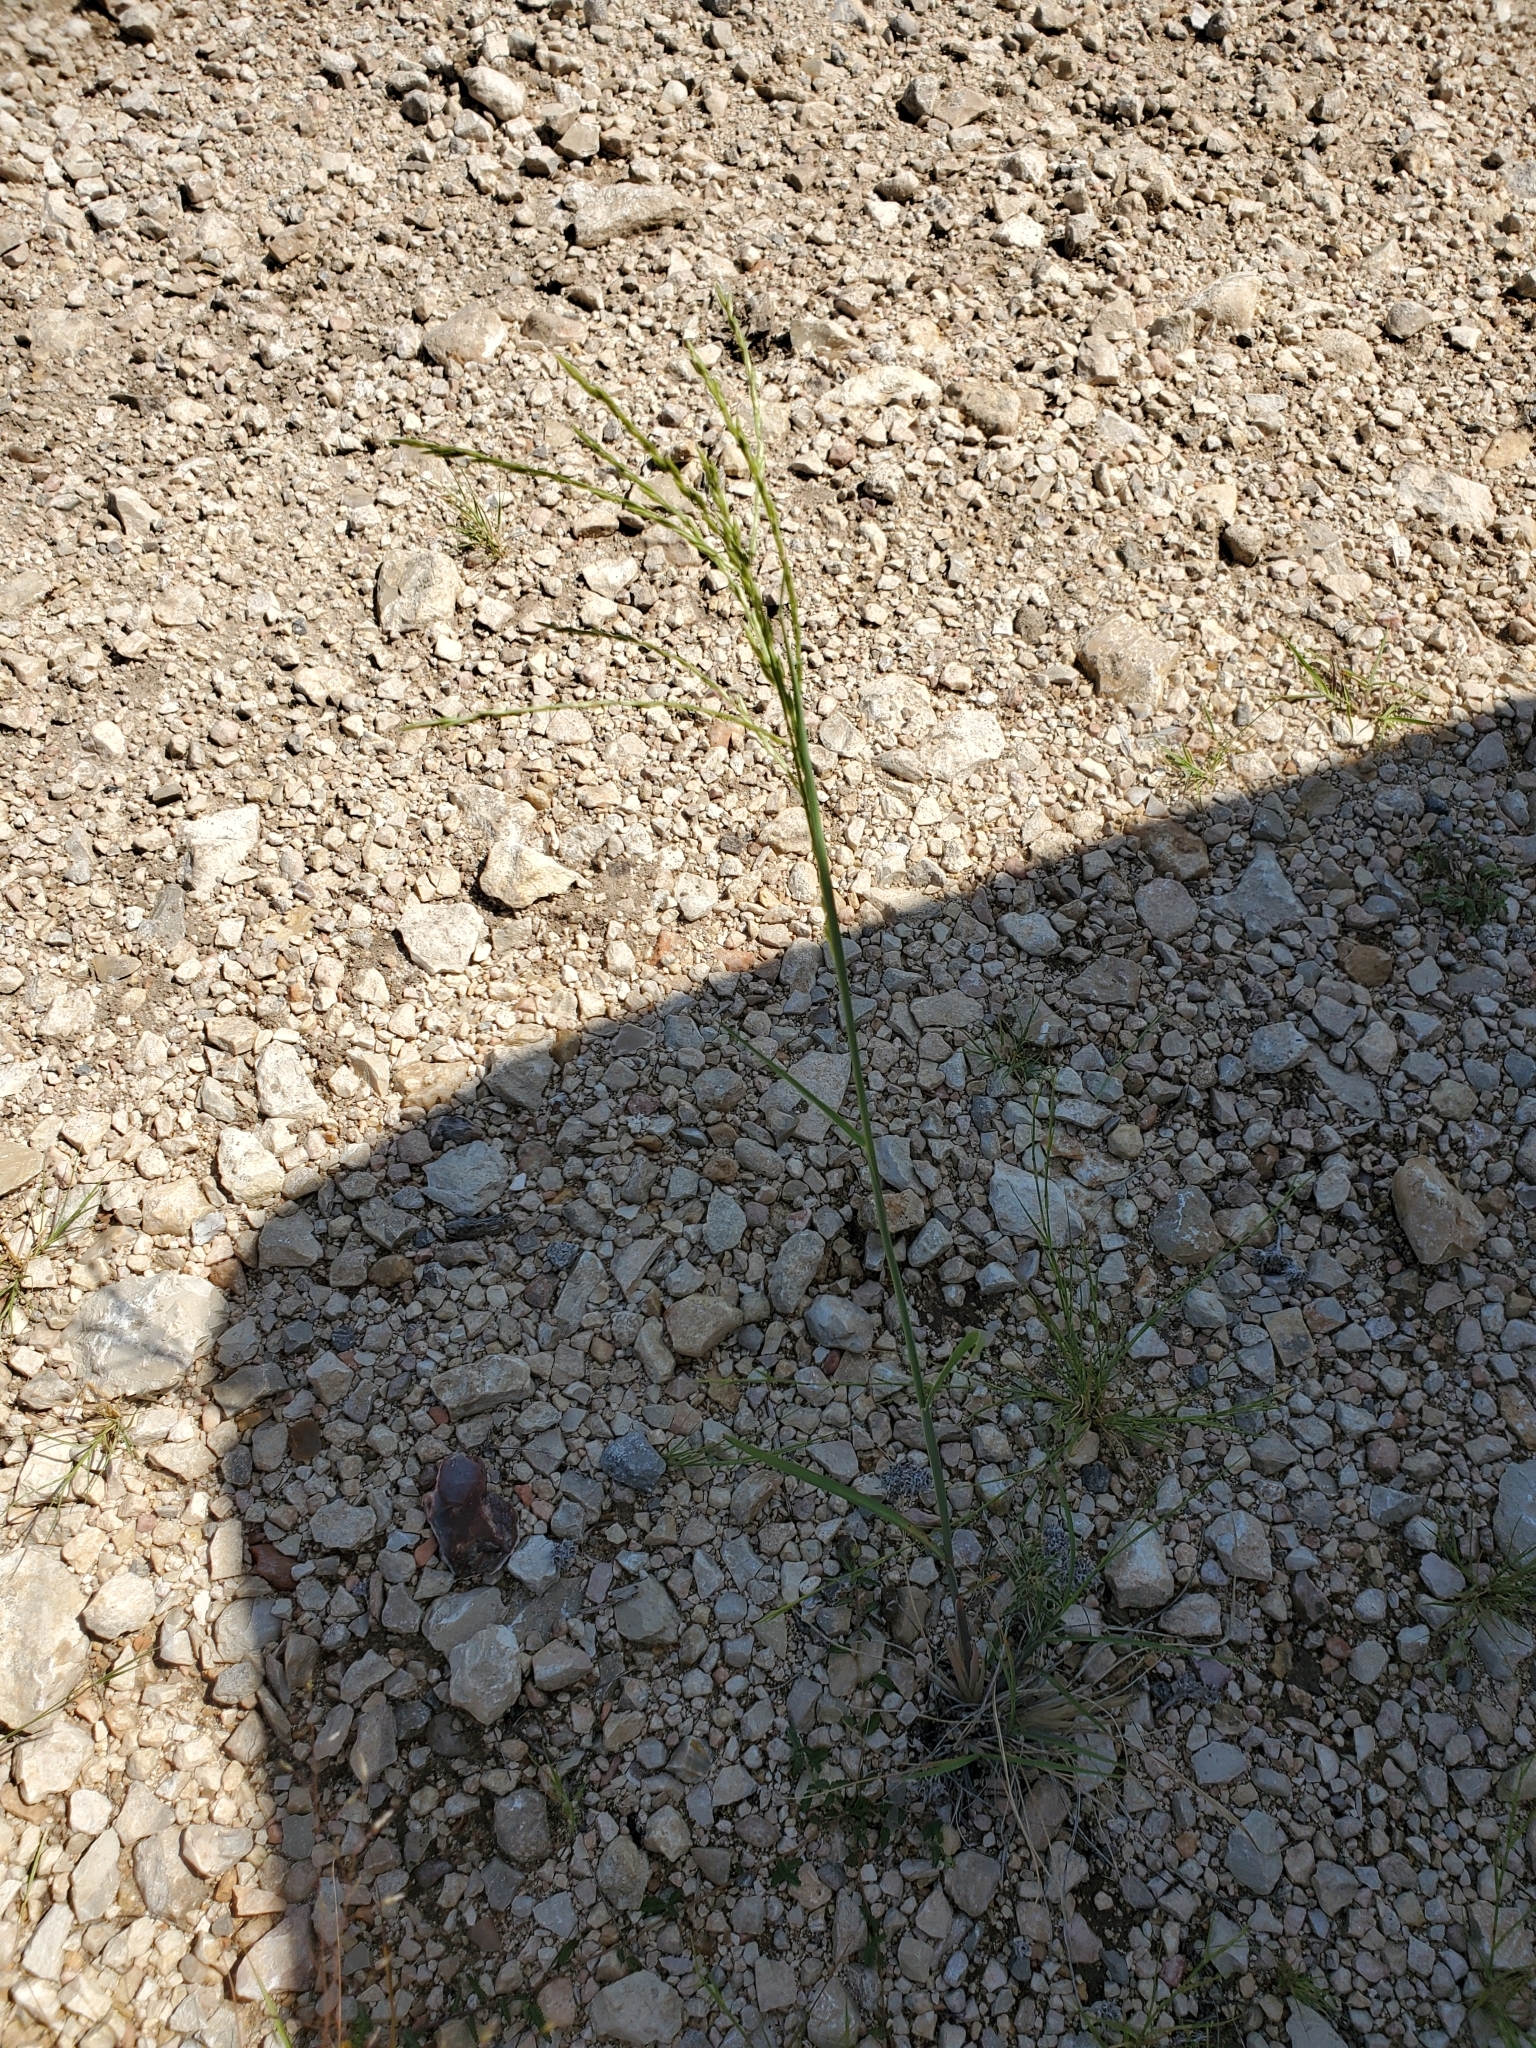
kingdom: Plantae
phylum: Tracheophyta
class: Liliopsida
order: Poales
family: Poaceae
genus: Disakisperma
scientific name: Disakisperma dubium
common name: Green sprangletop
